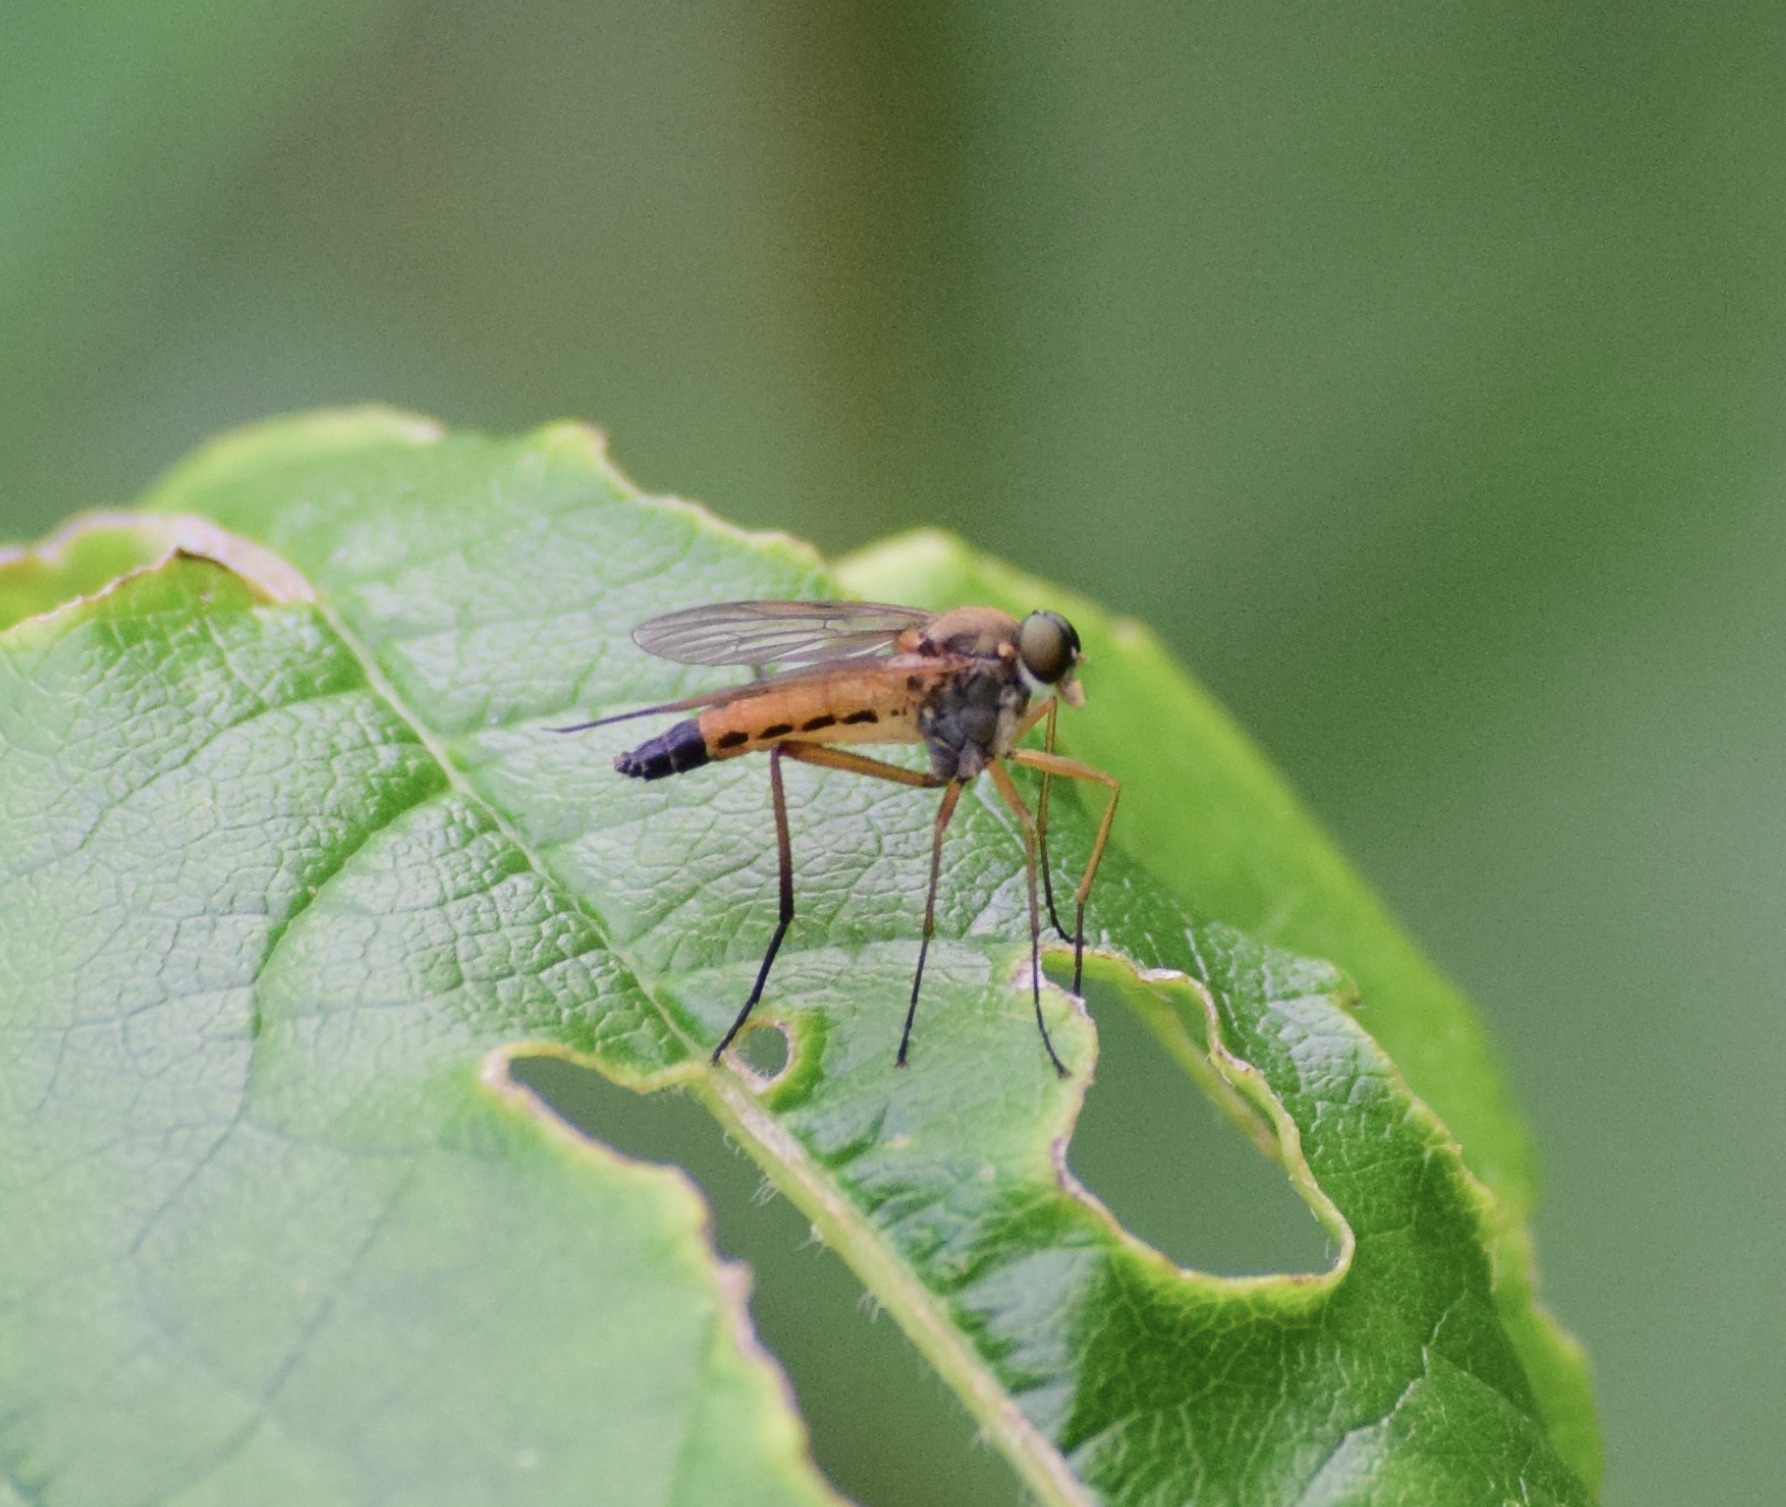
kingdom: Animalia
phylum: Arthropoda
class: Insecta
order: Diptera
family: Rhagionidae
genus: Rhagio
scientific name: Rhagio tringaria
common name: Marsh snipefly
